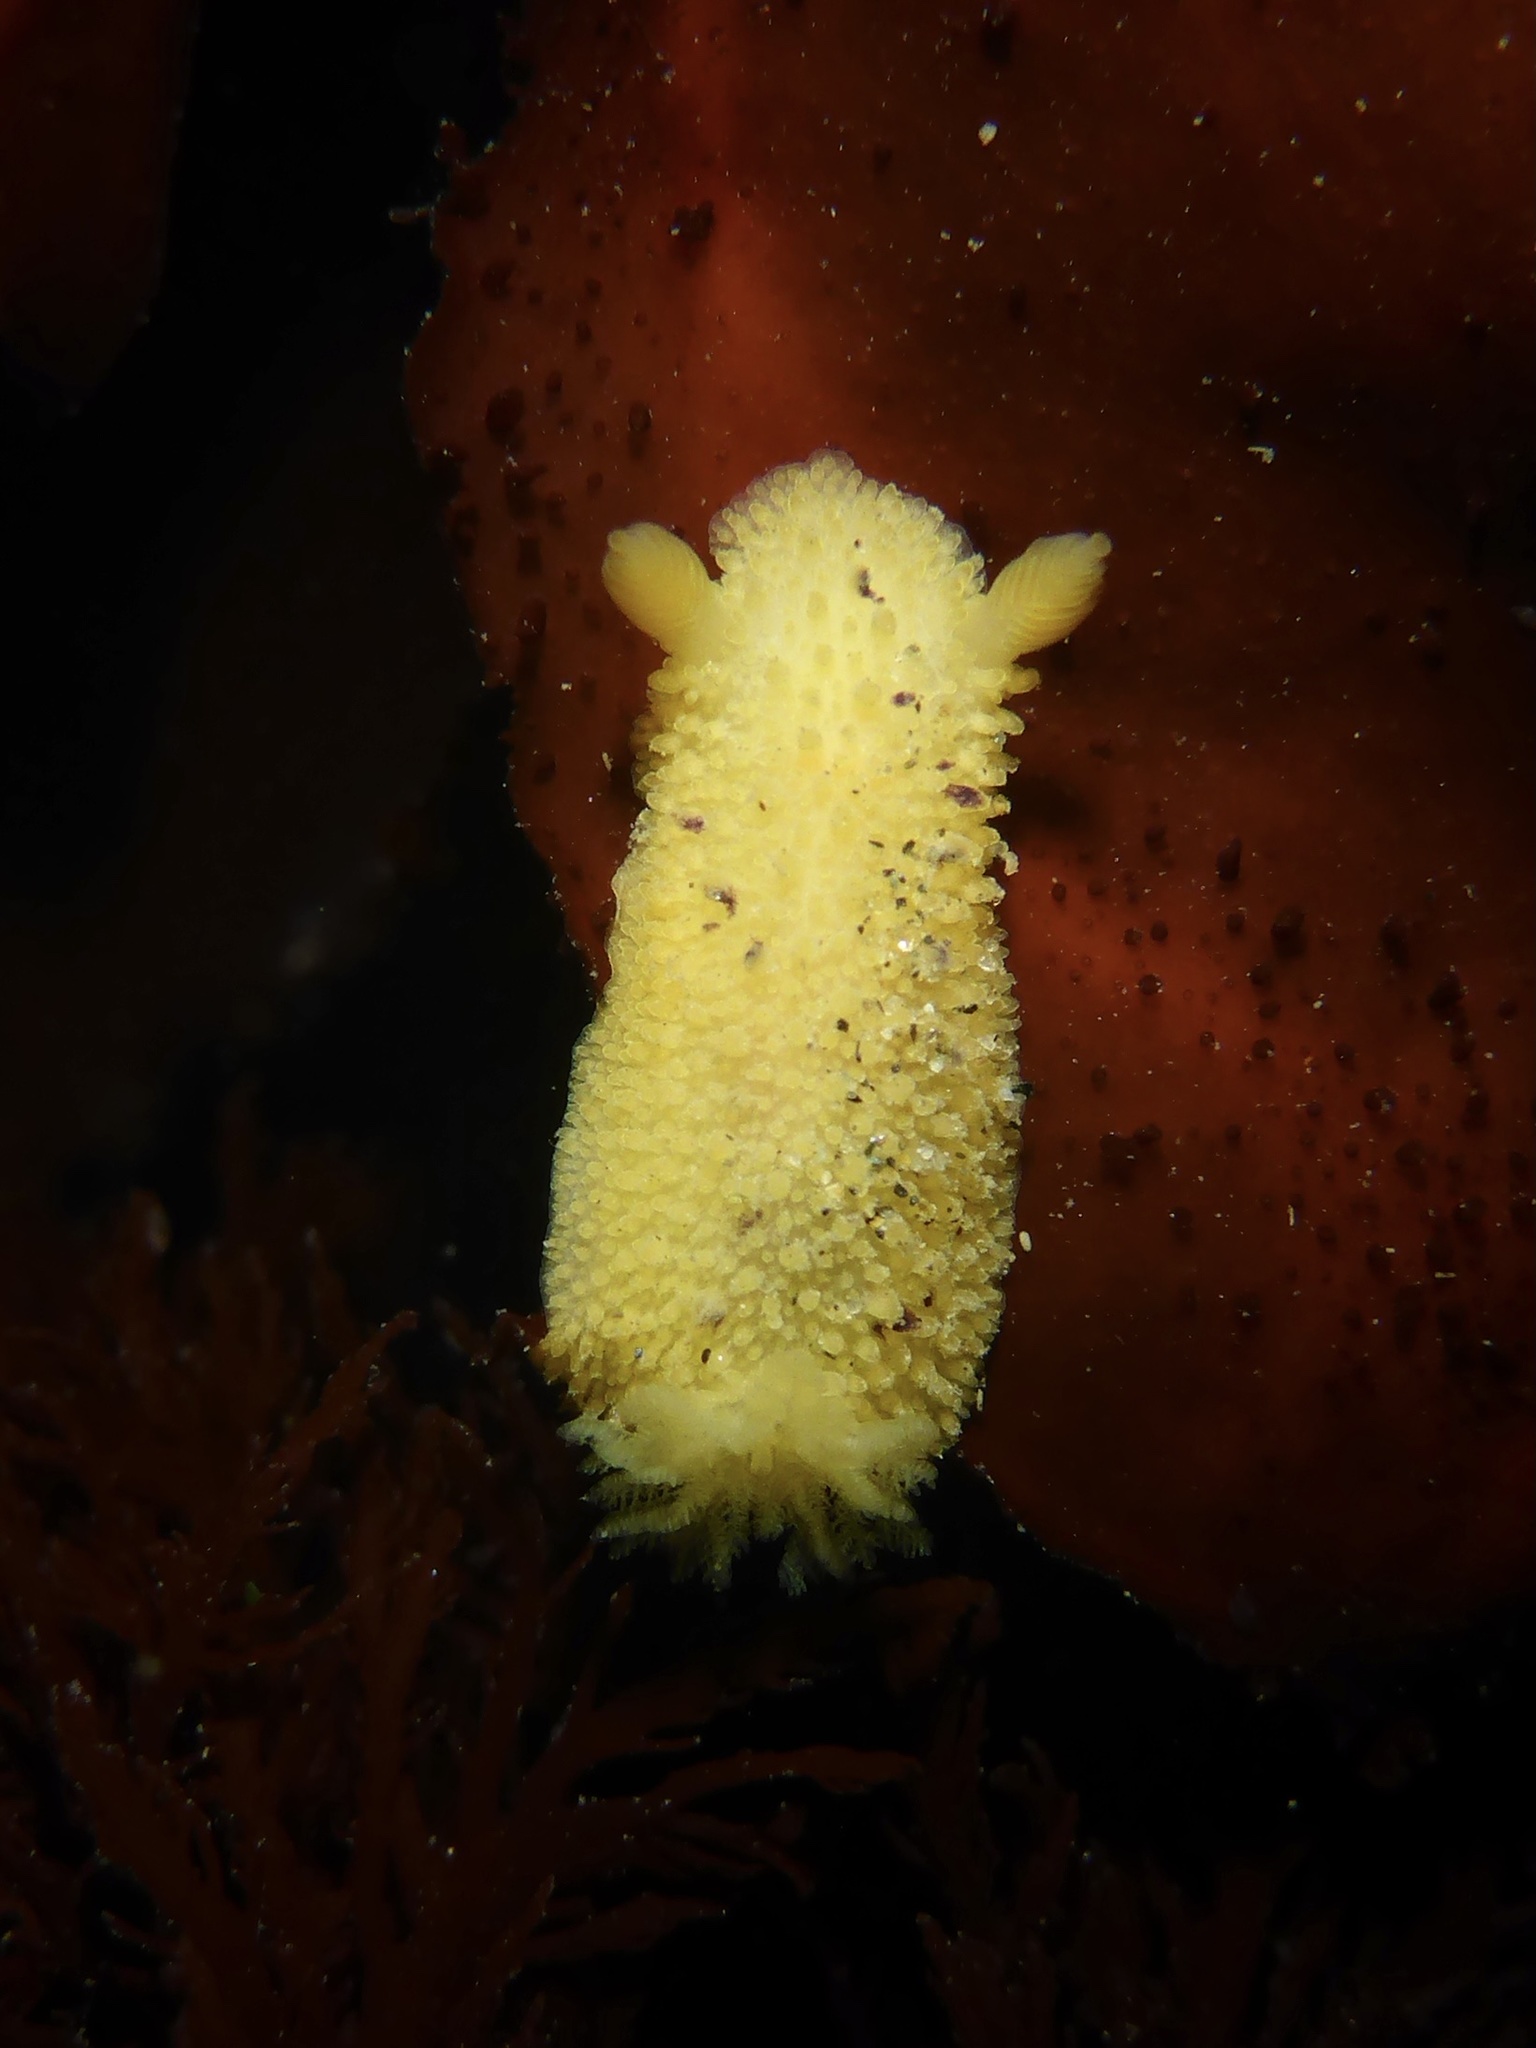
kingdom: Animalia
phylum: Mollusca
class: Gastropoda
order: Nudibranchia
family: Dorididae
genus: Doris
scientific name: Doris montereyensis
